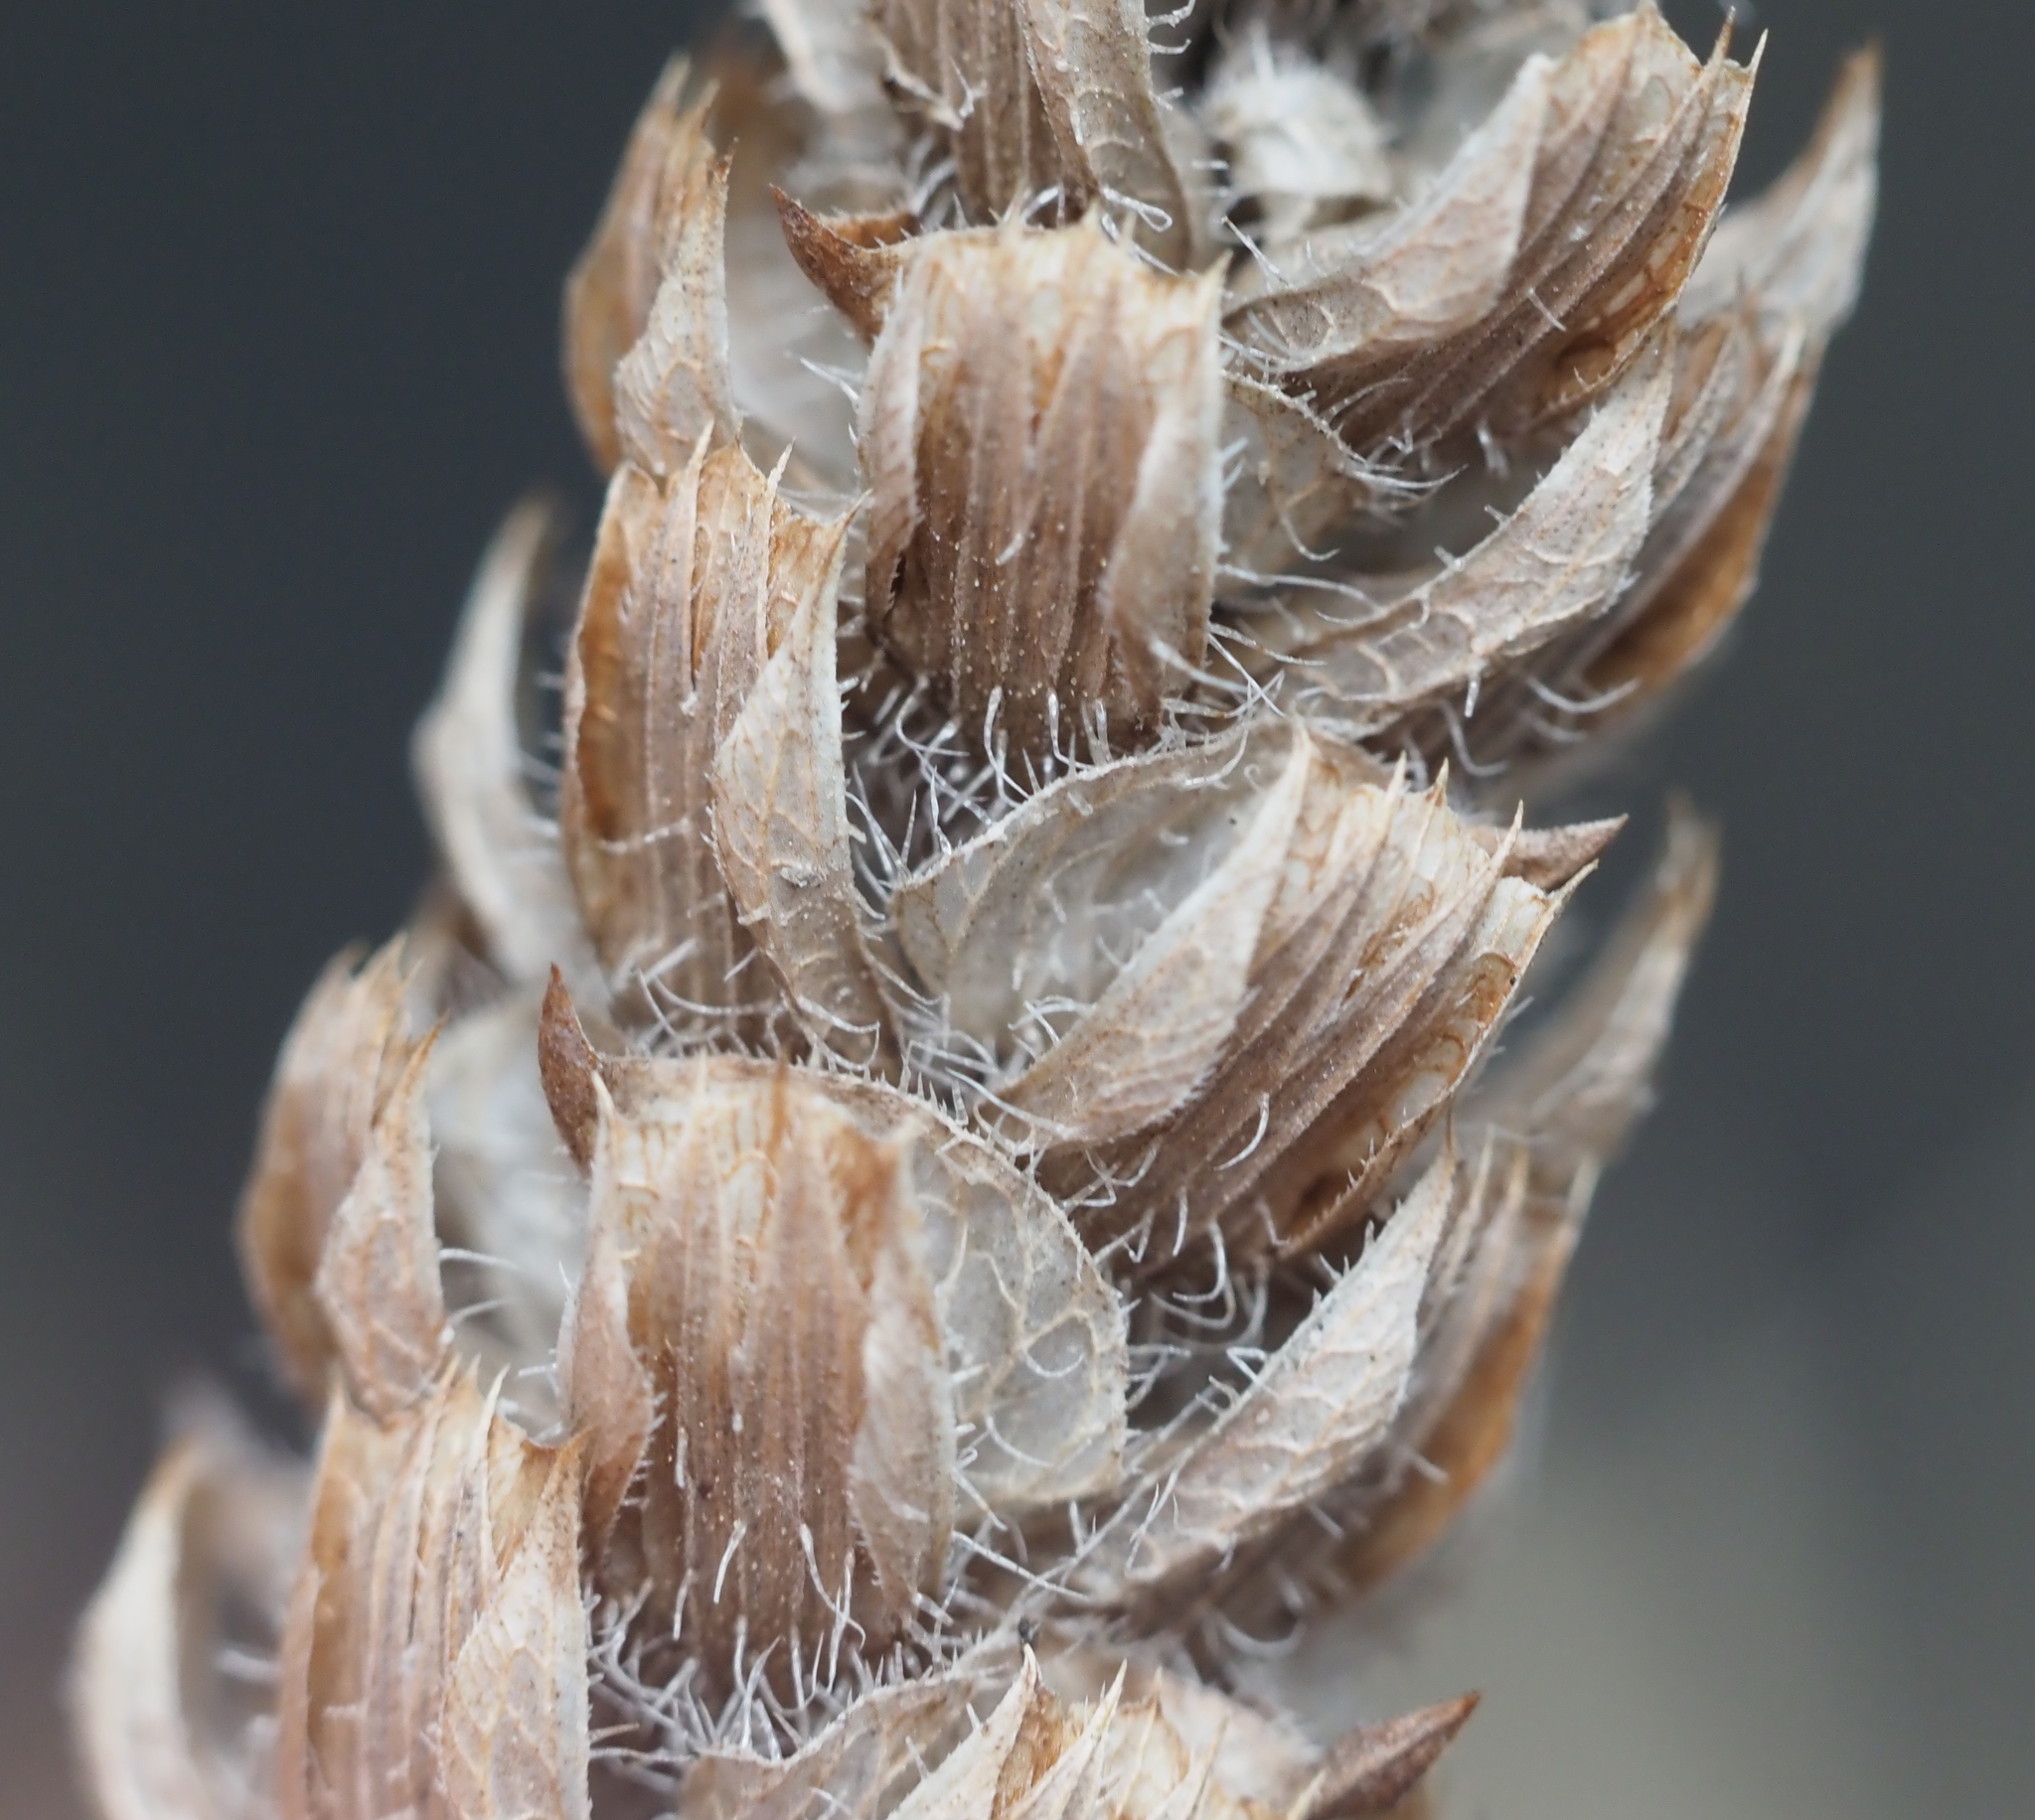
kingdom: Plantae
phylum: Tracheophyta
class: Magnoliopsida
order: Lamiales
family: Lamiaceae
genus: Prunella
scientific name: Prunella vulgaris
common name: Heal-all
